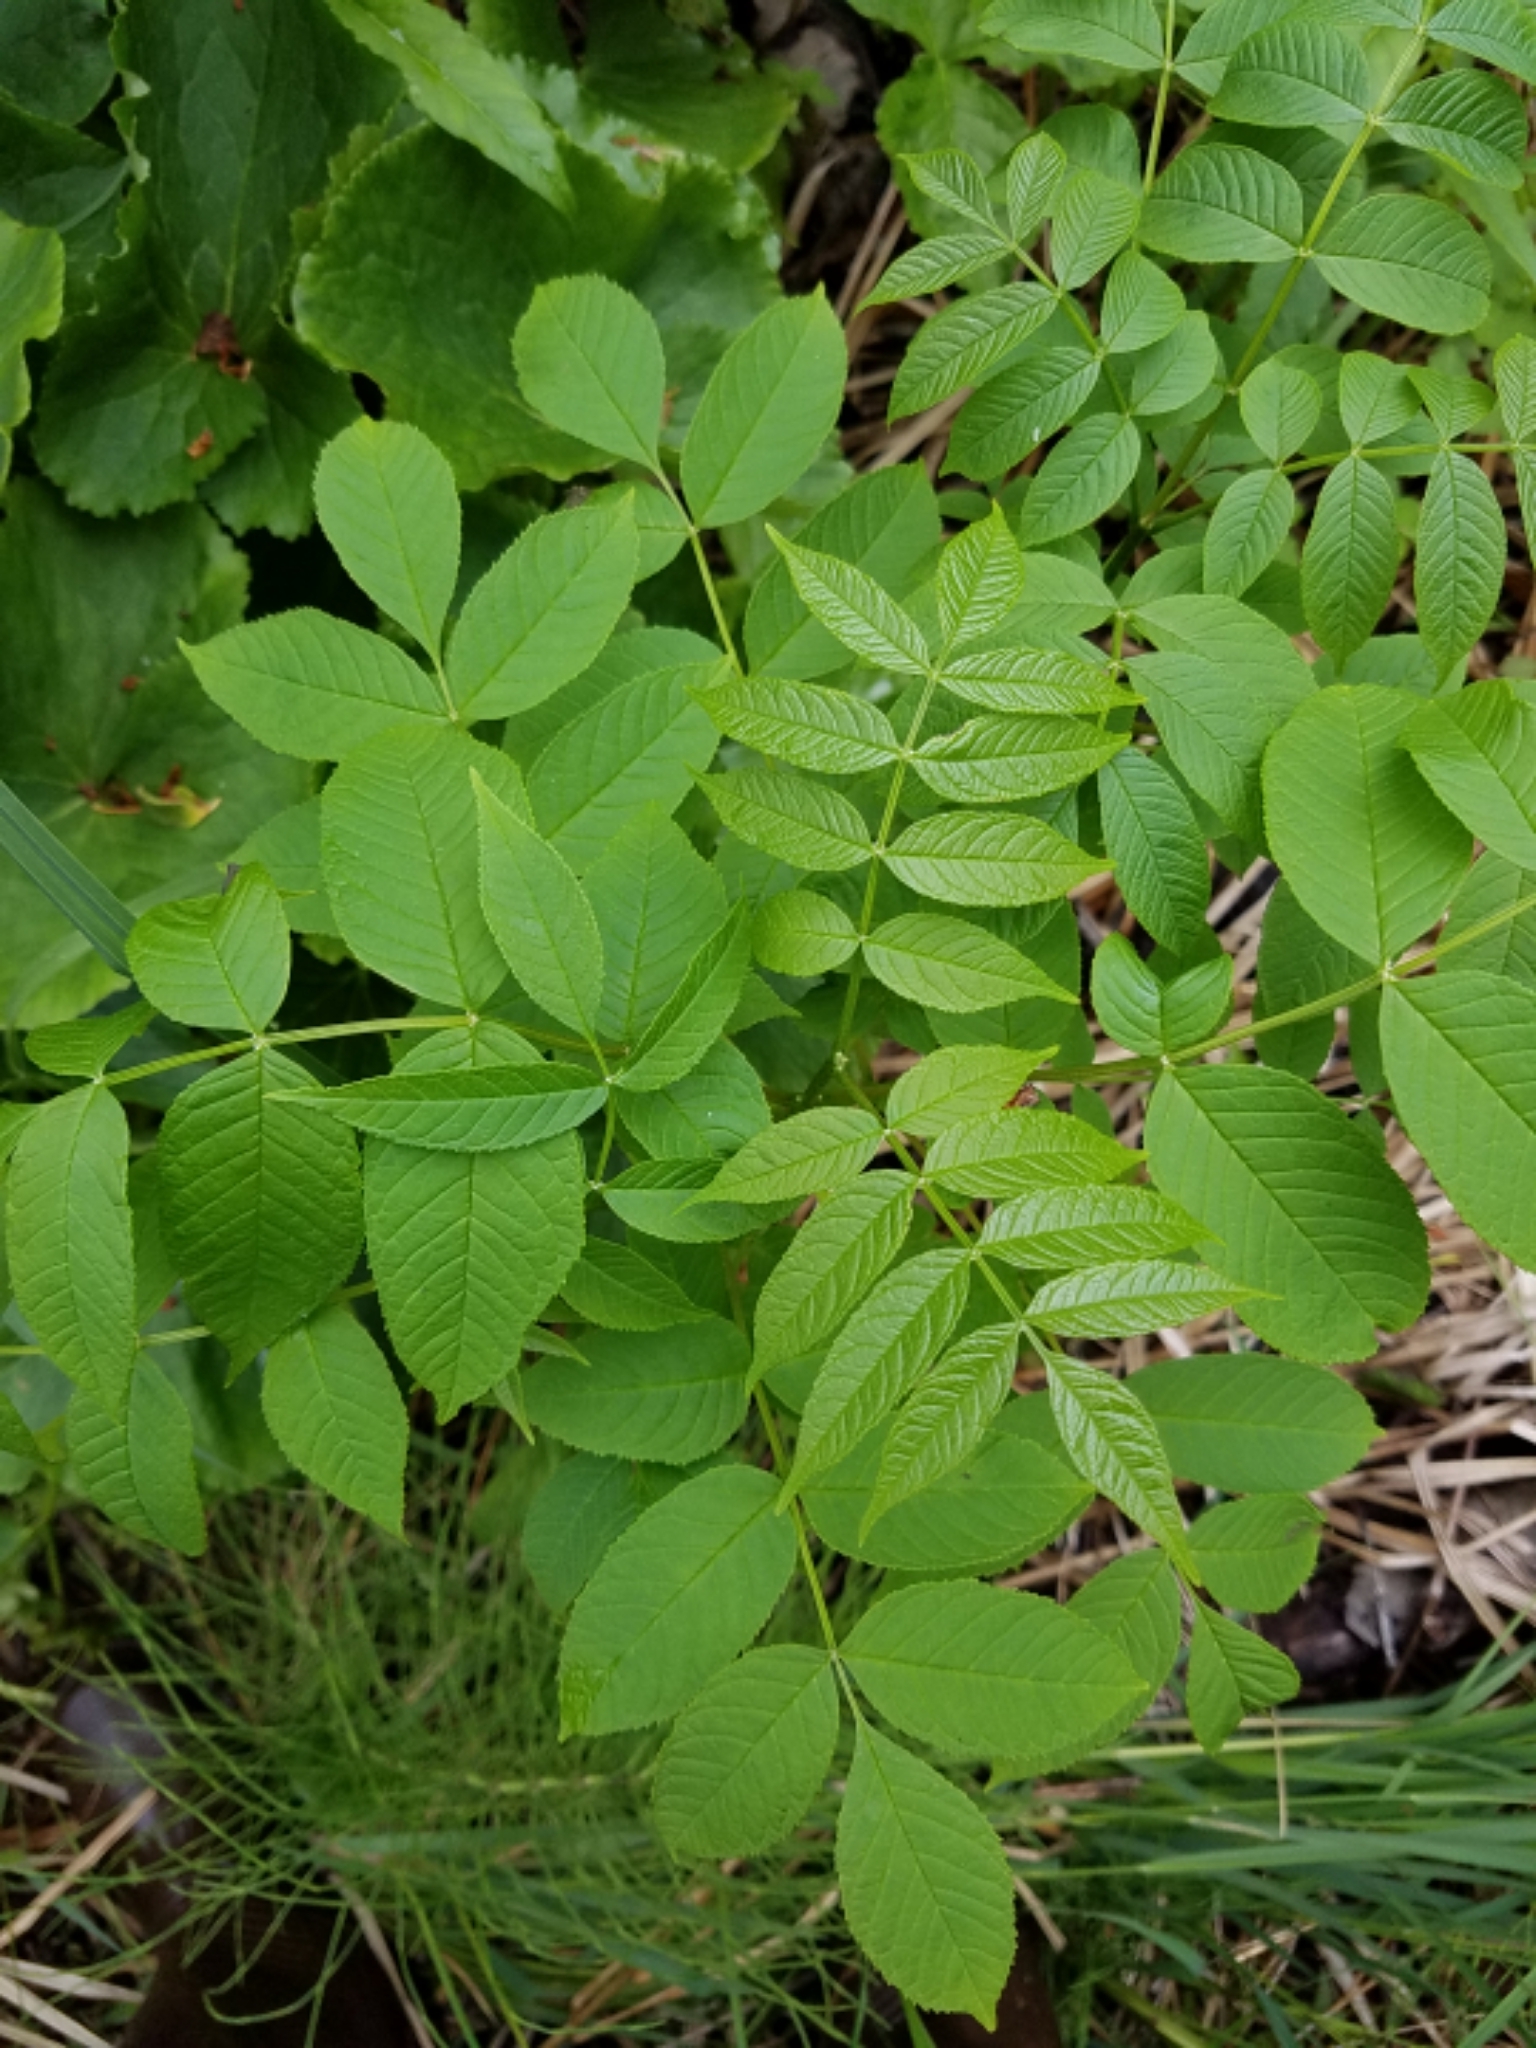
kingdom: Plantae
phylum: Tracheophyta
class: Magnoliopsida
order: Lamiales
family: Oleaceae
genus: Fraxinus
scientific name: Fraxinus nigra
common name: Black ash
